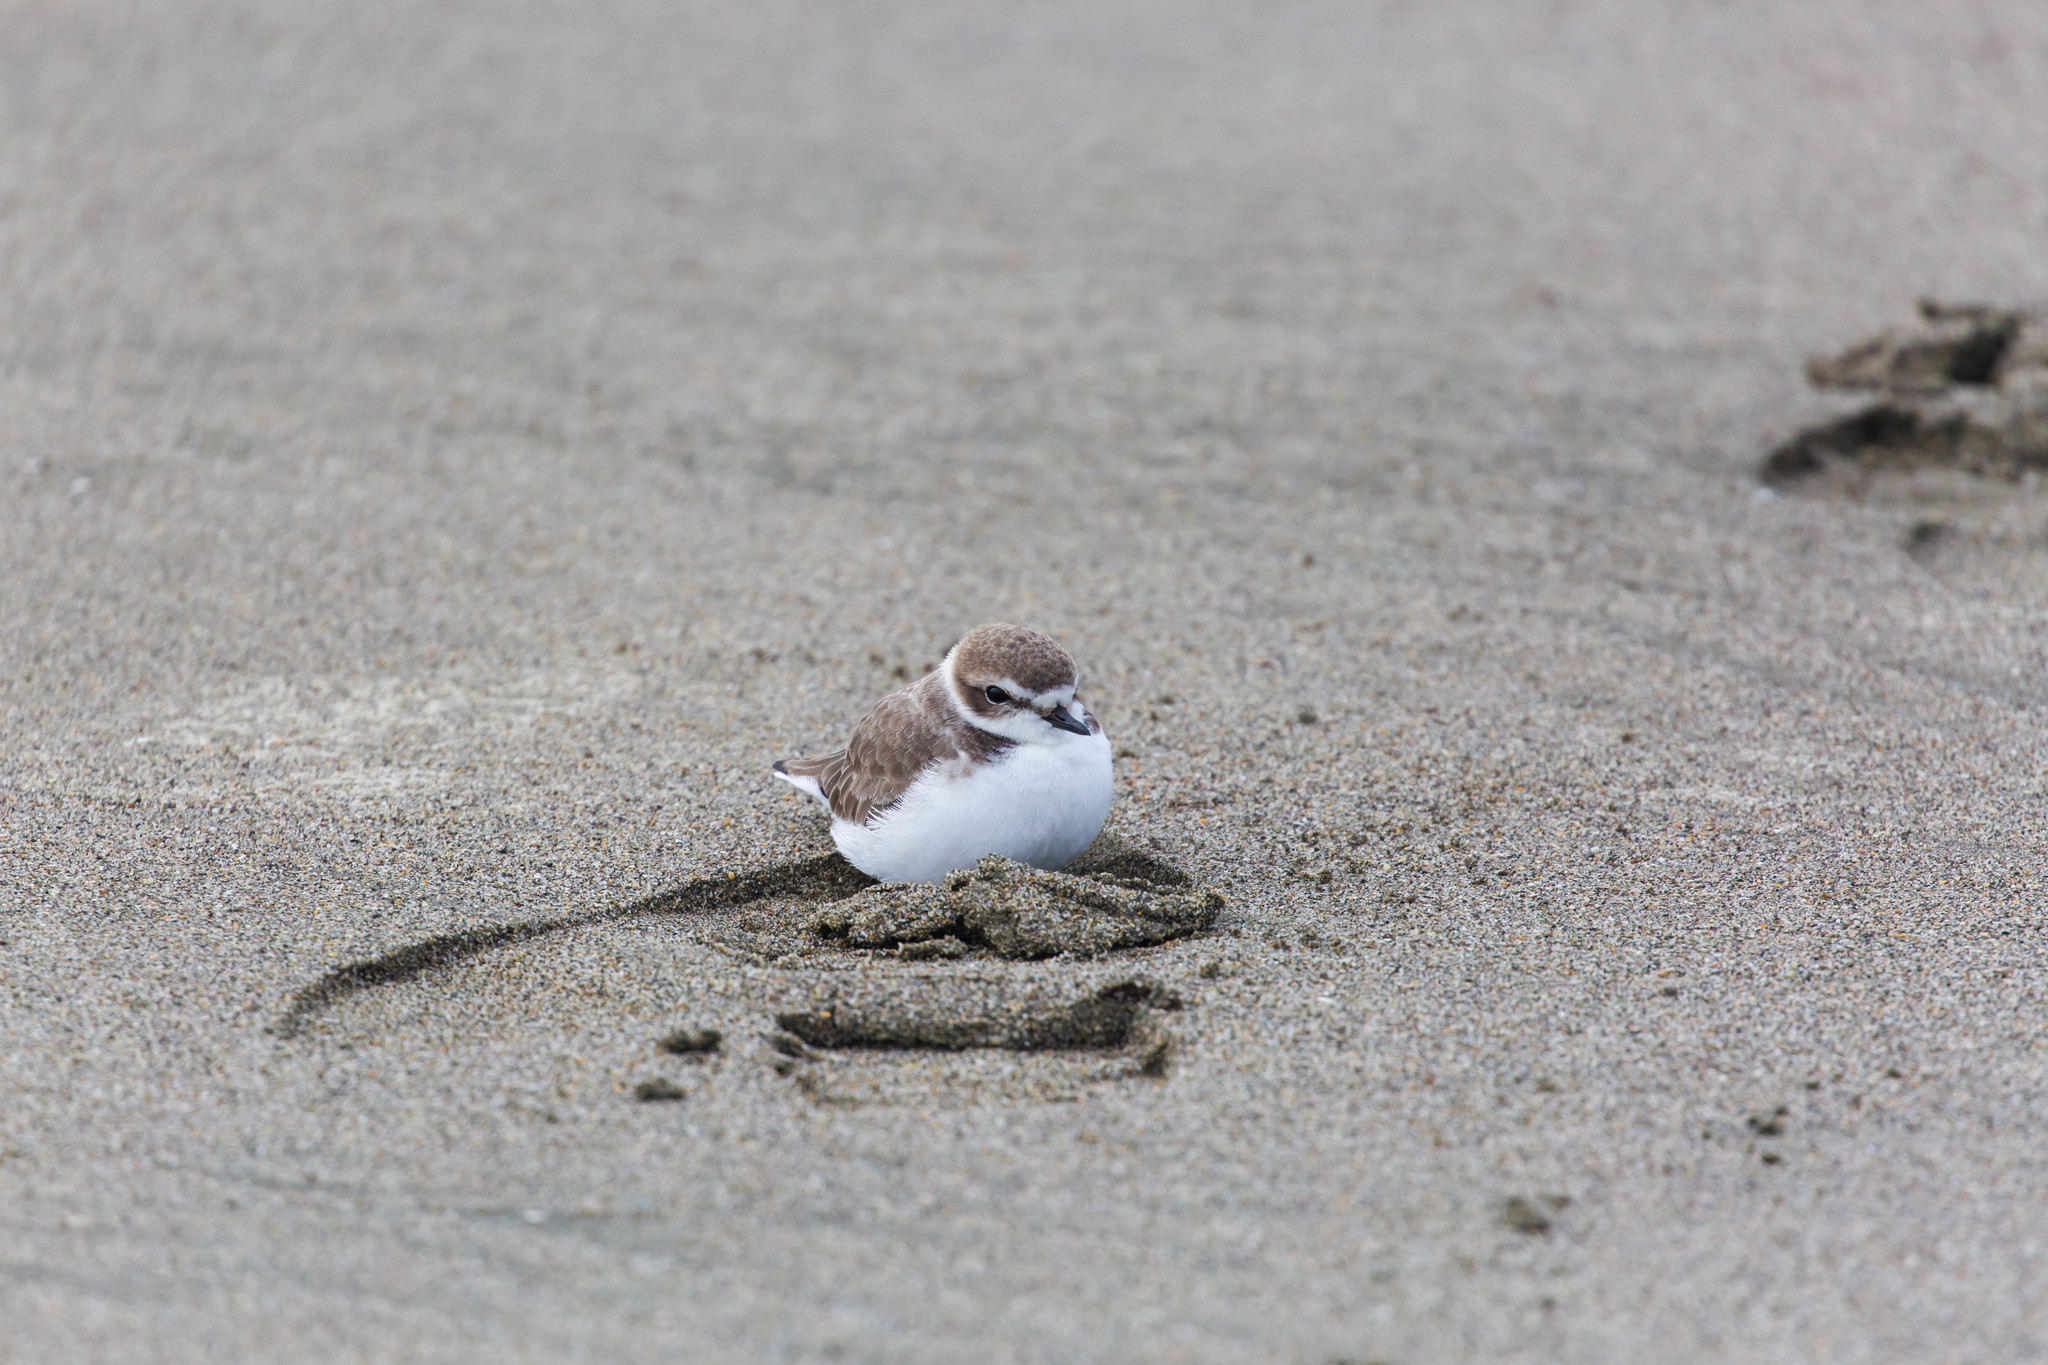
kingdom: Animalia
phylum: Chordata
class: Aves
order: Charadriiformes
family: Charadriidae
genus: Anarhynchus
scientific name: Anarhynchus
